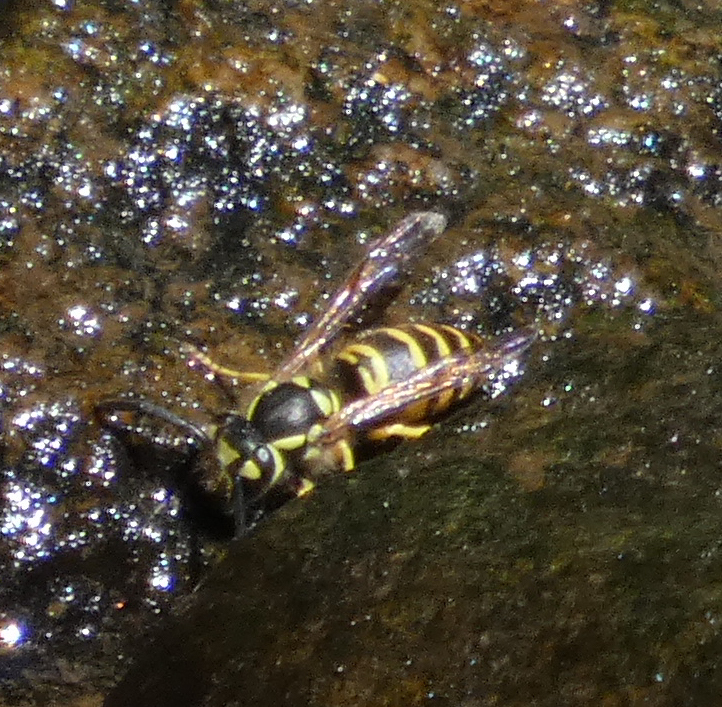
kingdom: Animalia
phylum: Arthropoda
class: Insecta
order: Hymenoptera
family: Vespidae
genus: Vespula
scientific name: Vespula maculifrons
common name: Eastern yellowjacket
